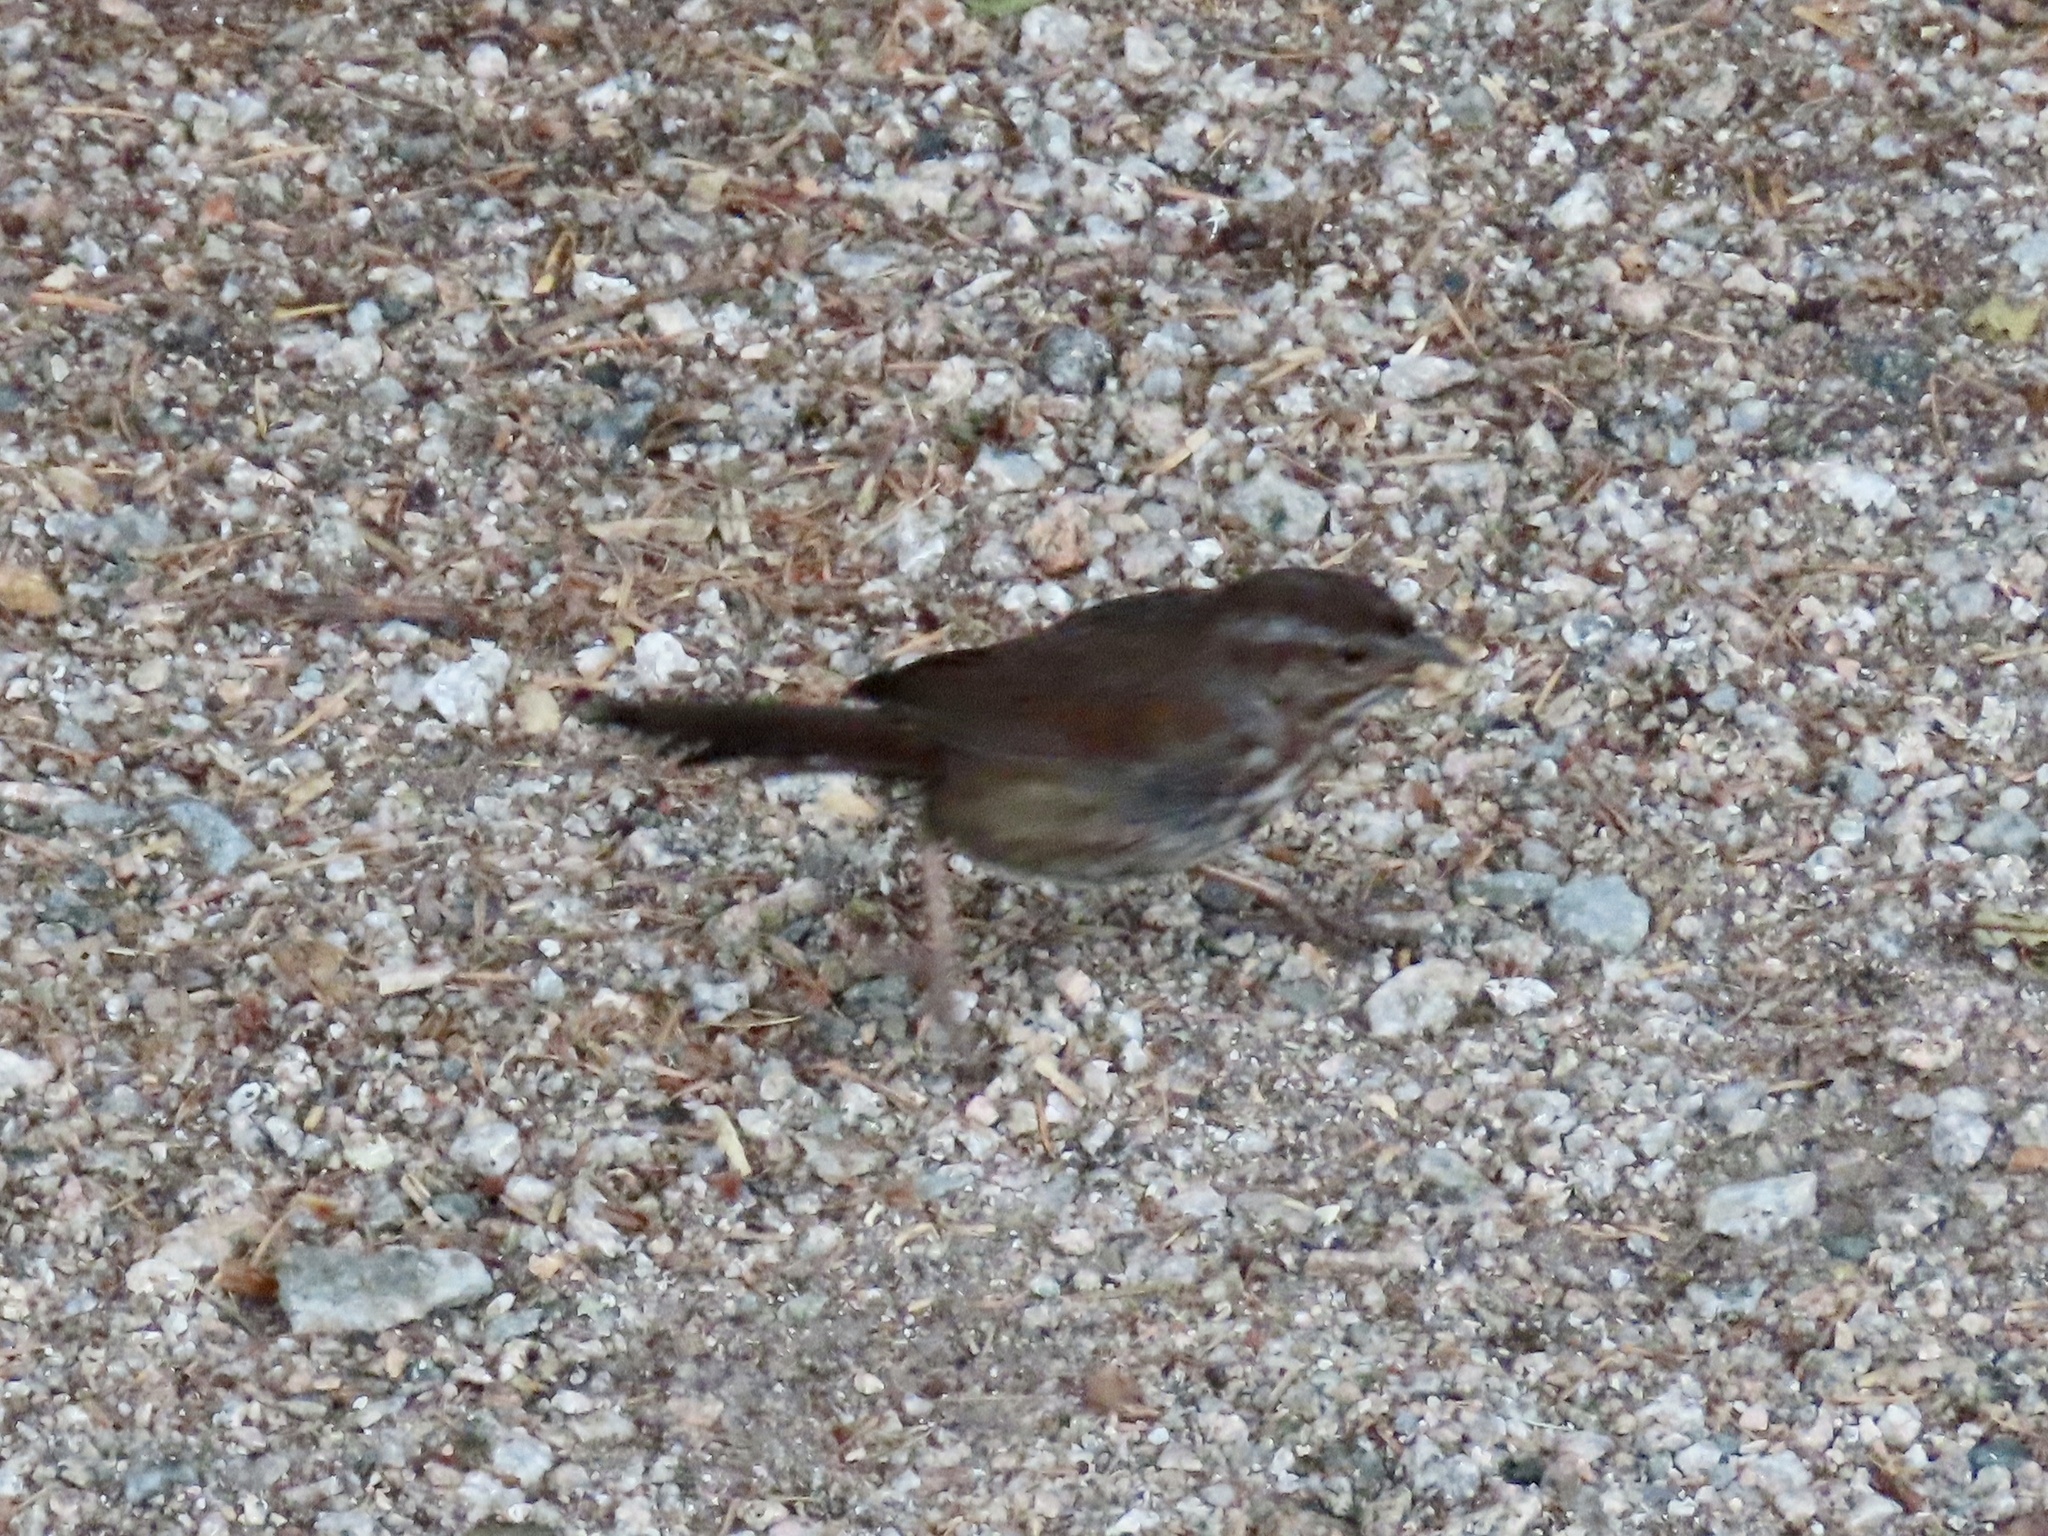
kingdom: Animalia
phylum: Chordata
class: Aves
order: Passeriformes
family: Passerellidae
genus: Melospiza
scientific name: Melospiza melodia
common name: Song sparrow
